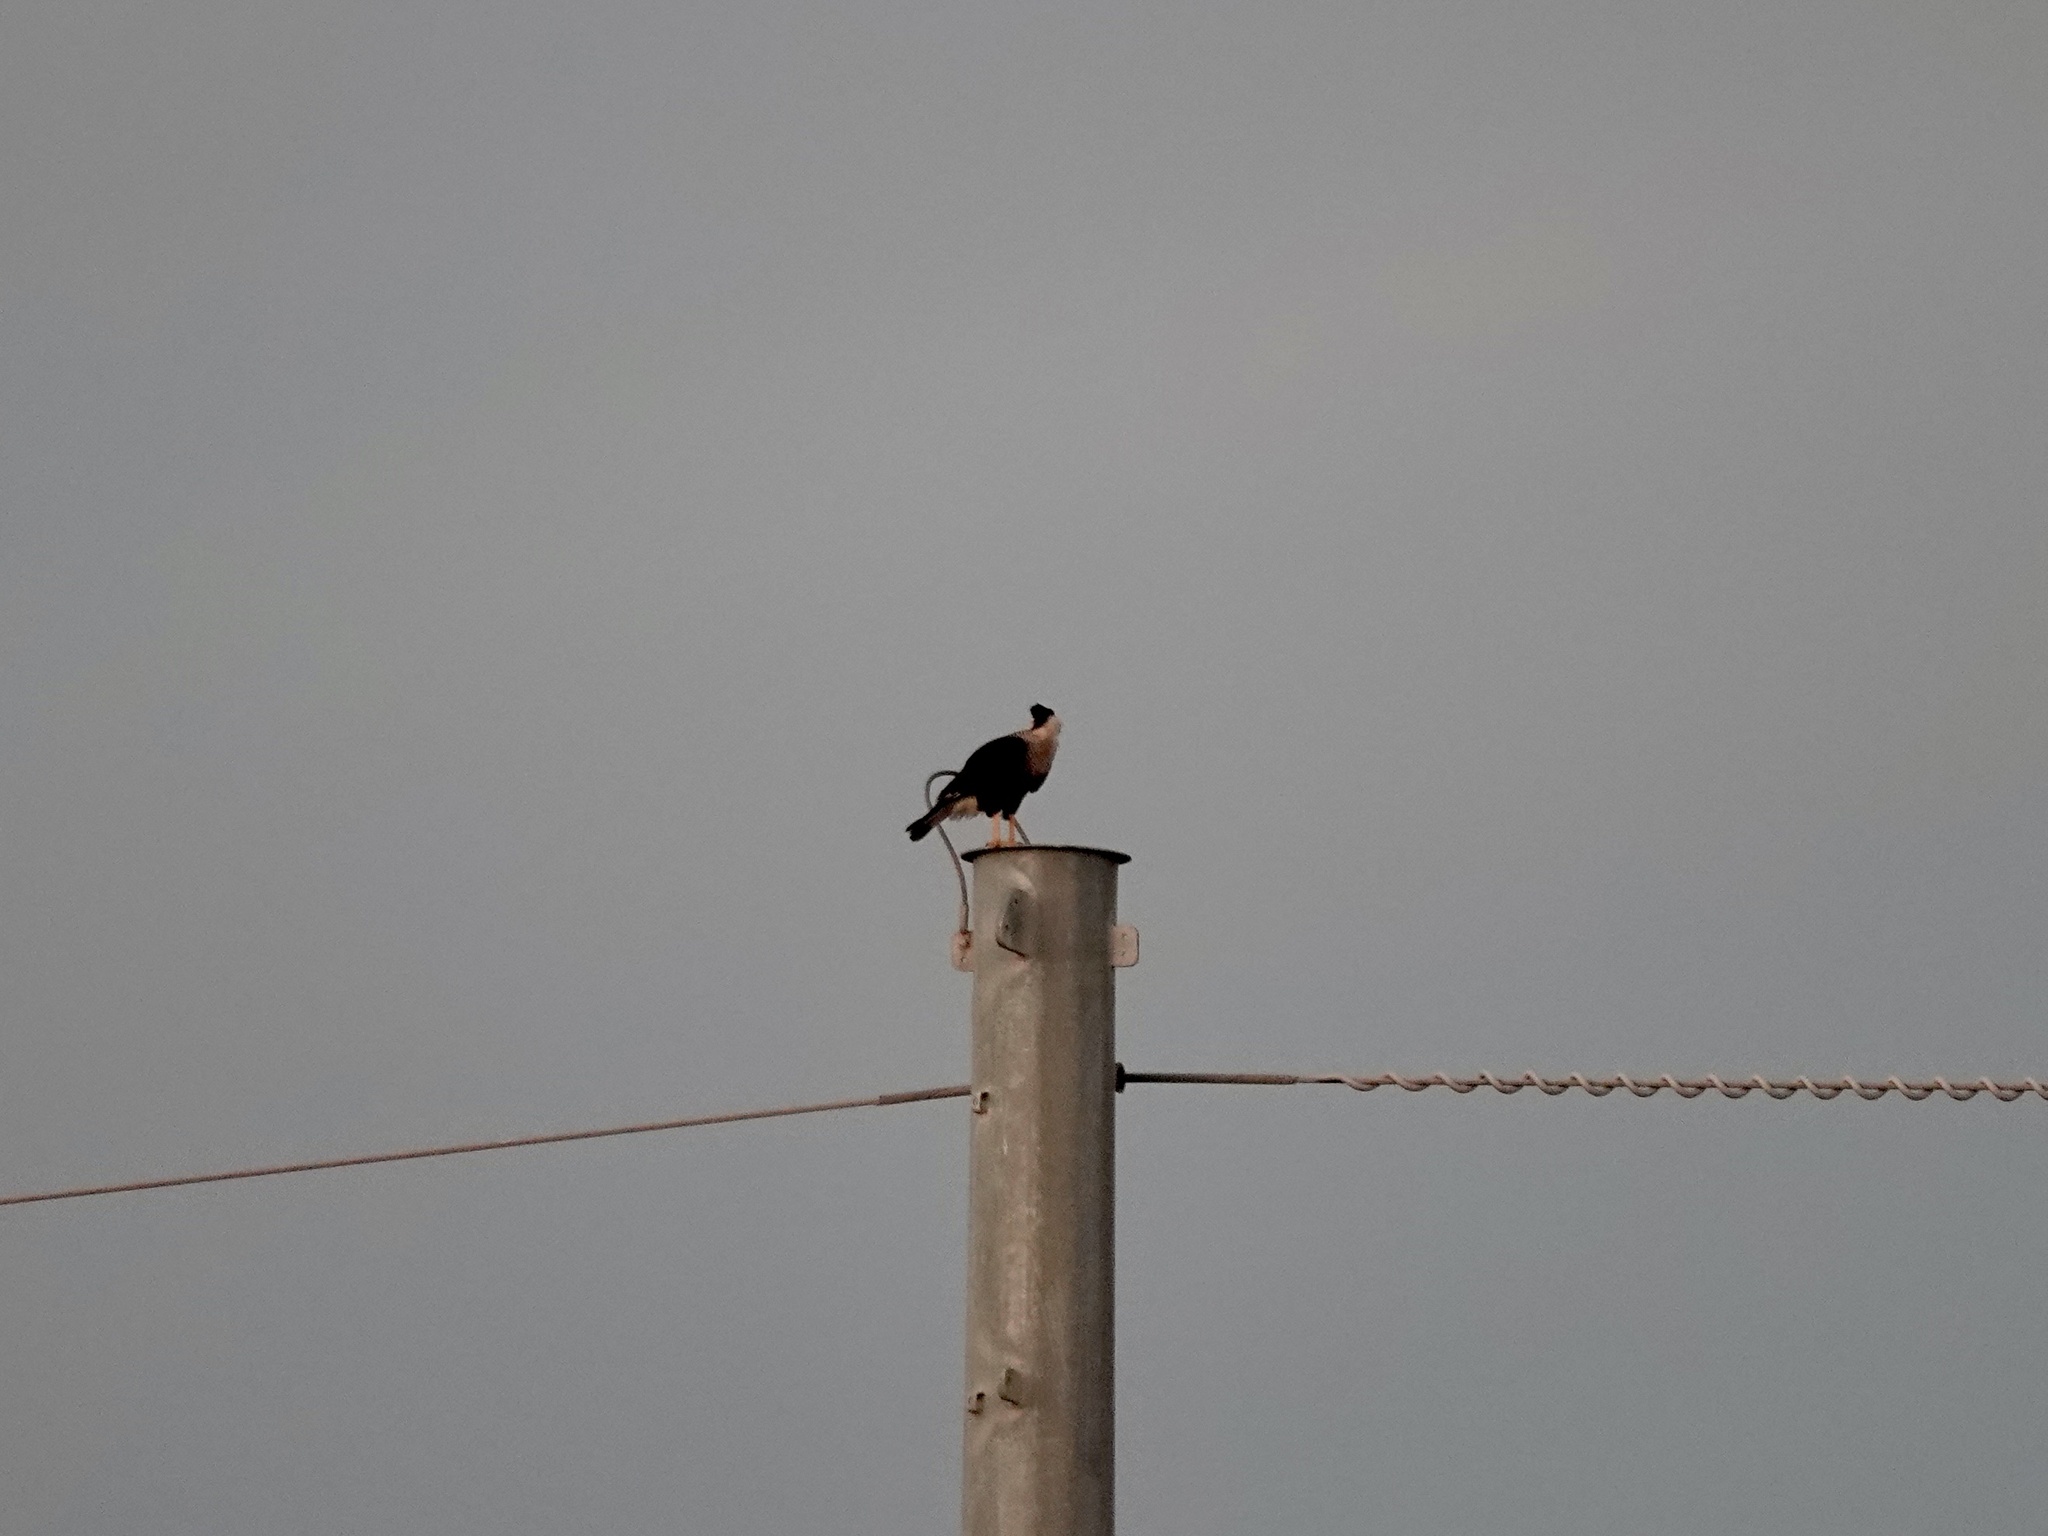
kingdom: Animalia
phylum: Chordata
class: Aves
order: Falconiformes
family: Falconidae
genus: Caracara
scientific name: Caracara plancus
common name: Southern caracara
